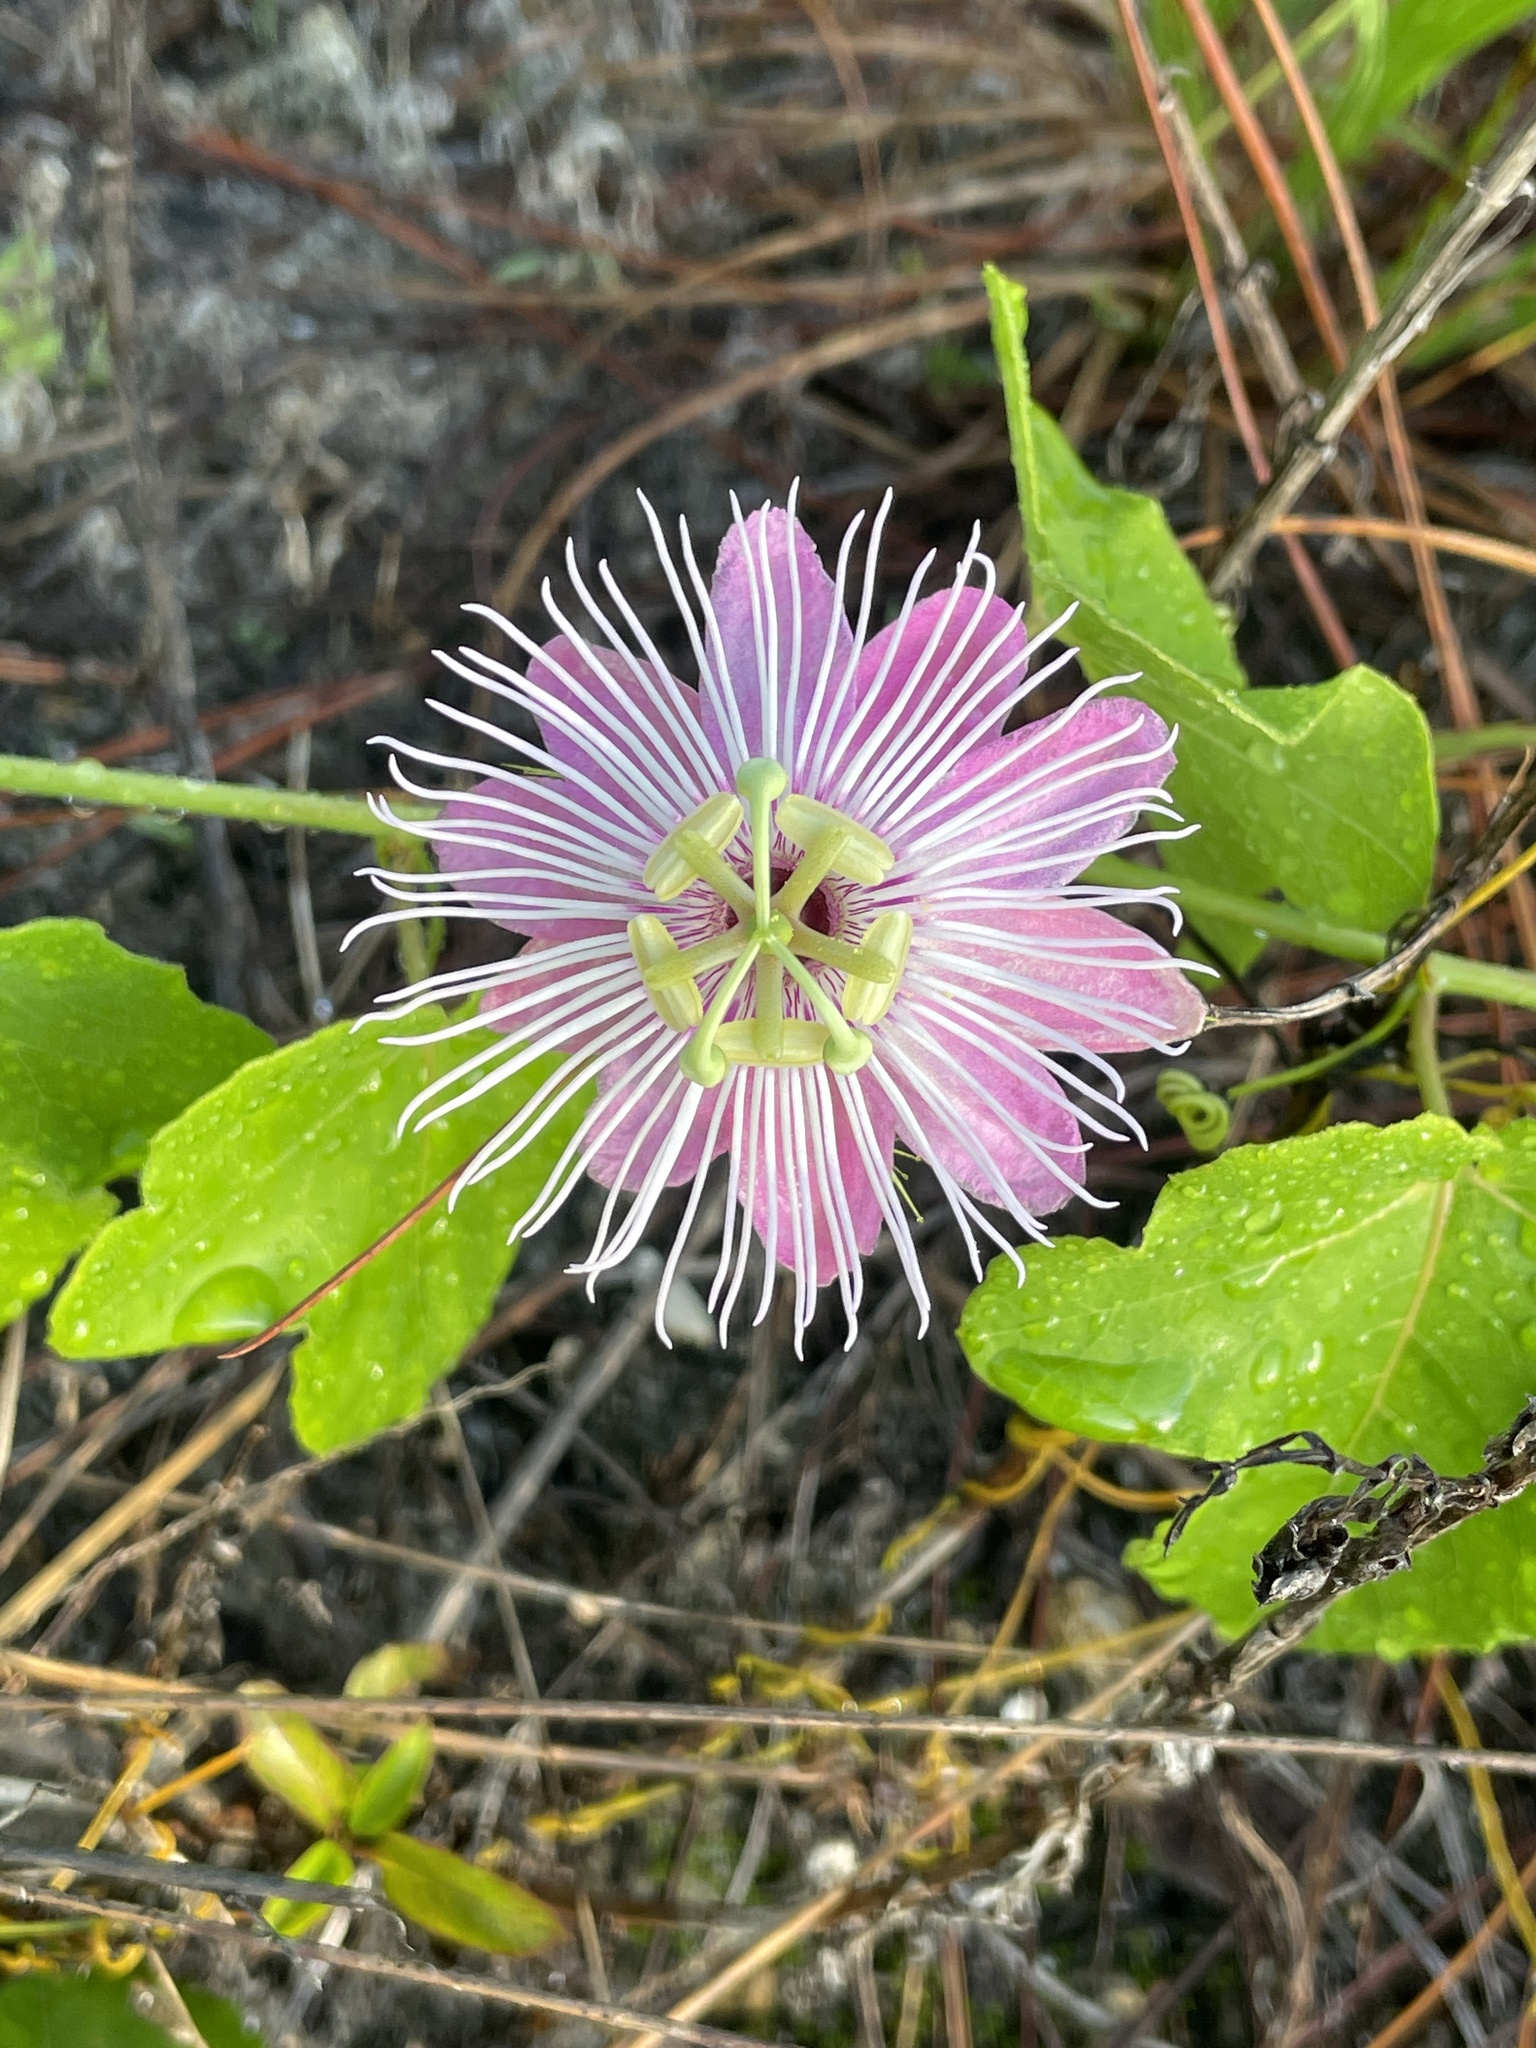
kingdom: Plantae
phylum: Tracheophyta
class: Magnoliopsida
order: Malpighiales
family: Passifloraceae
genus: Passiflora
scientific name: Passiflora ciliata
